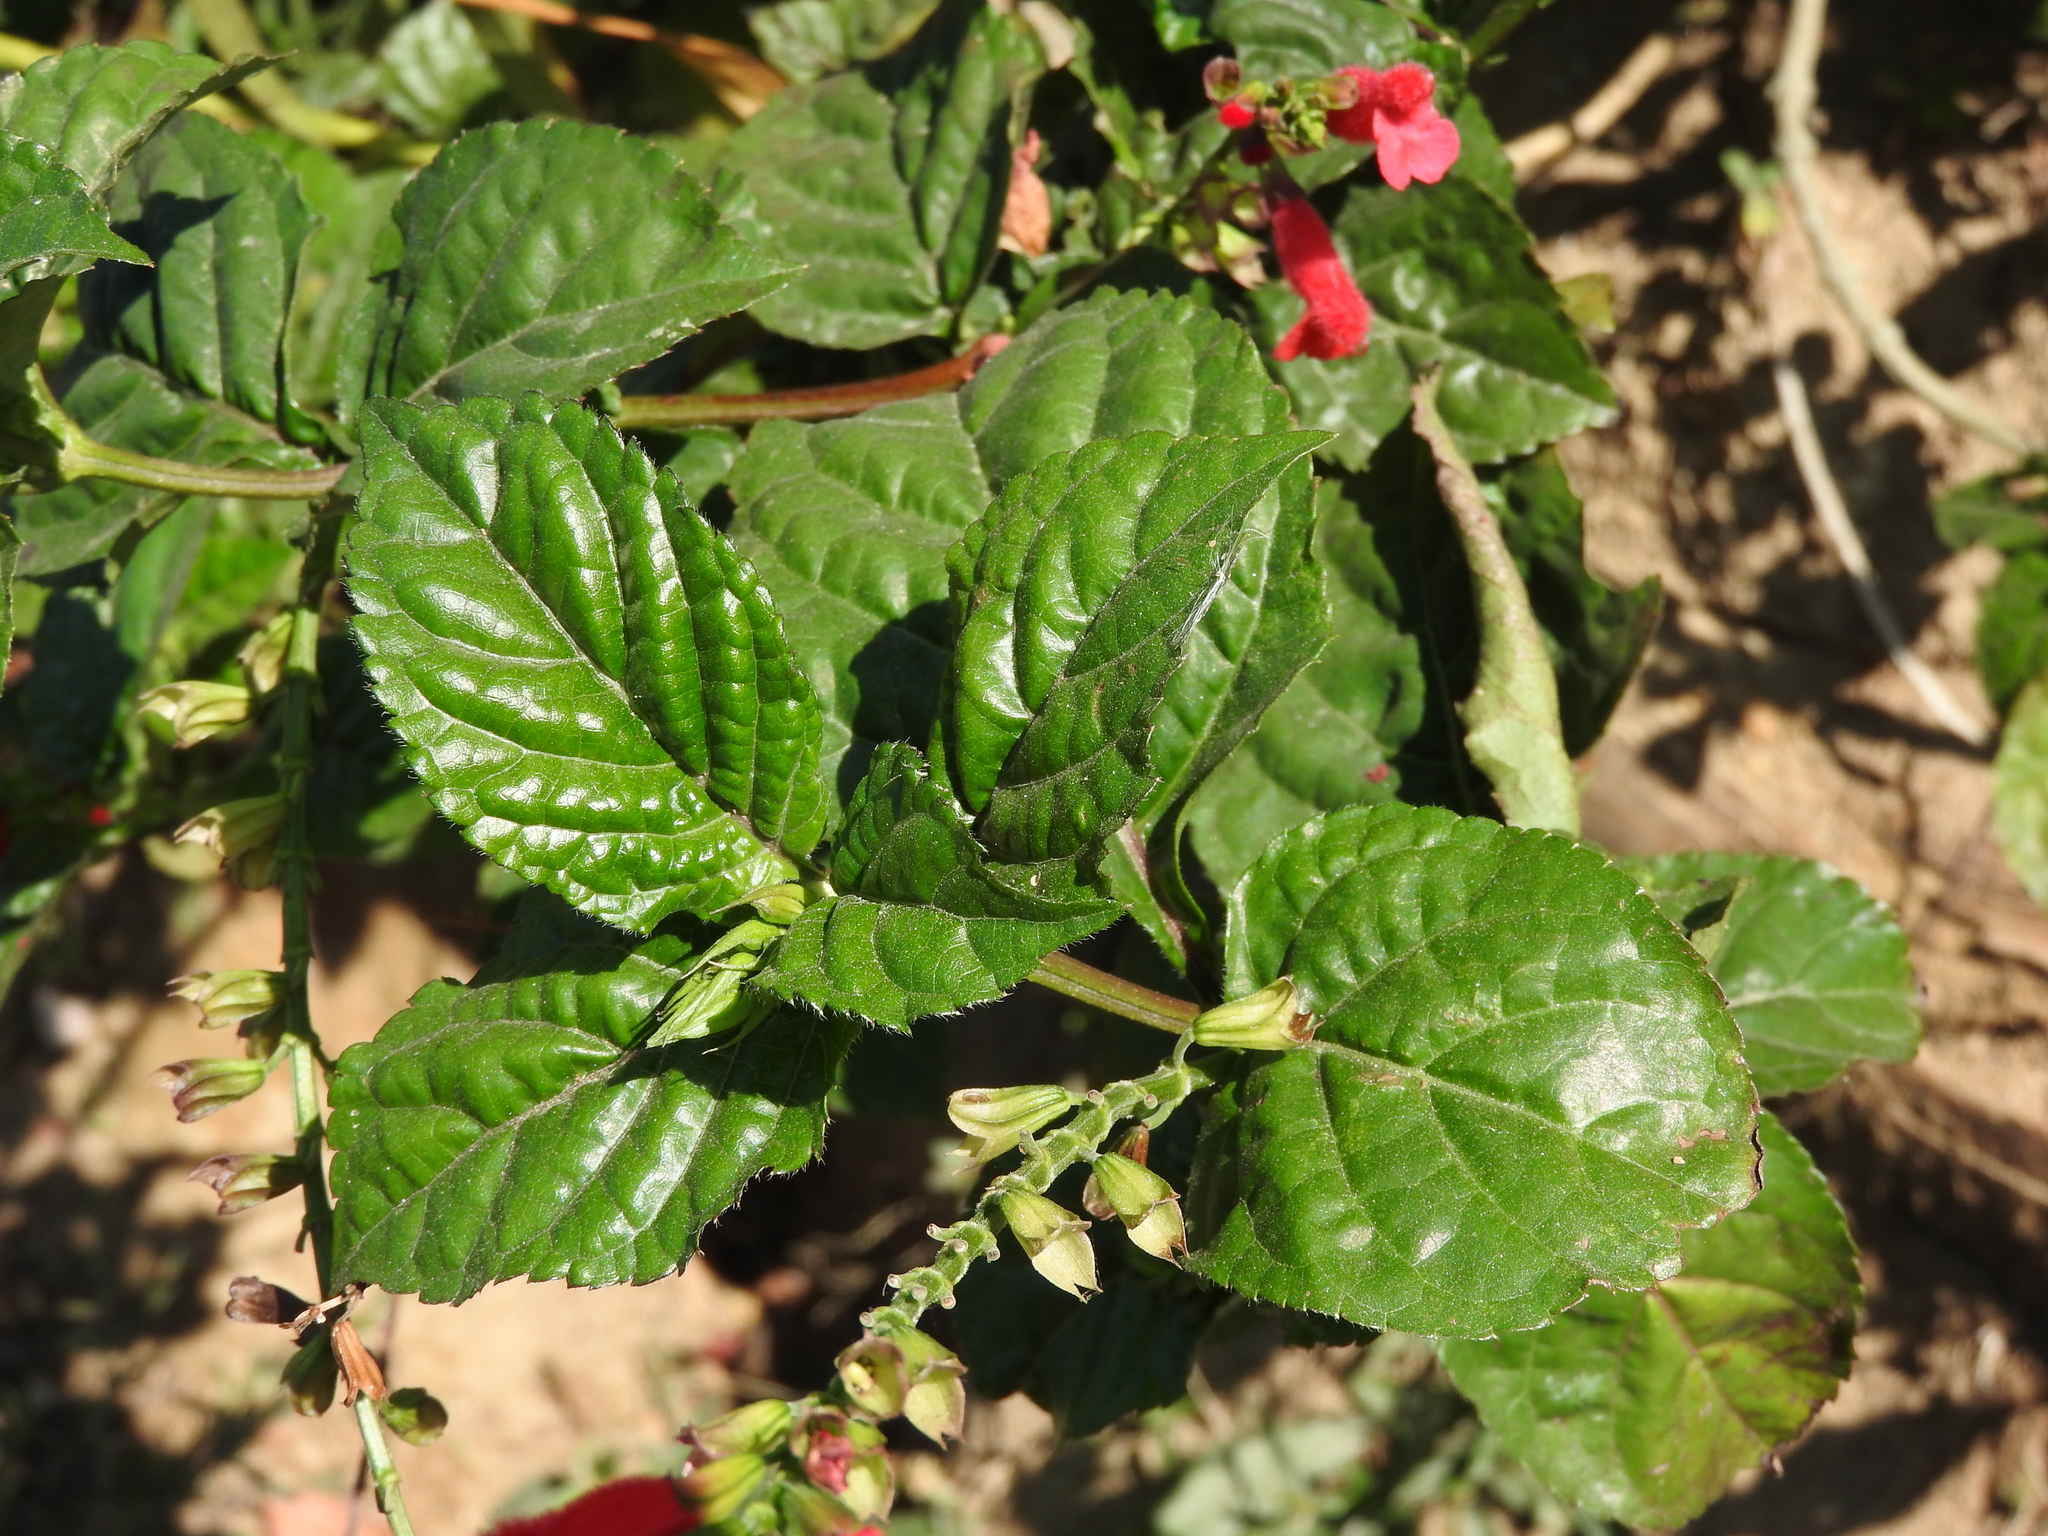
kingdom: Plantae
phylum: Tracheophyta
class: Magnoliopsida
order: Lamiales
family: Lamiaceae
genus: Salvia
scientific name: Salvia miniata
